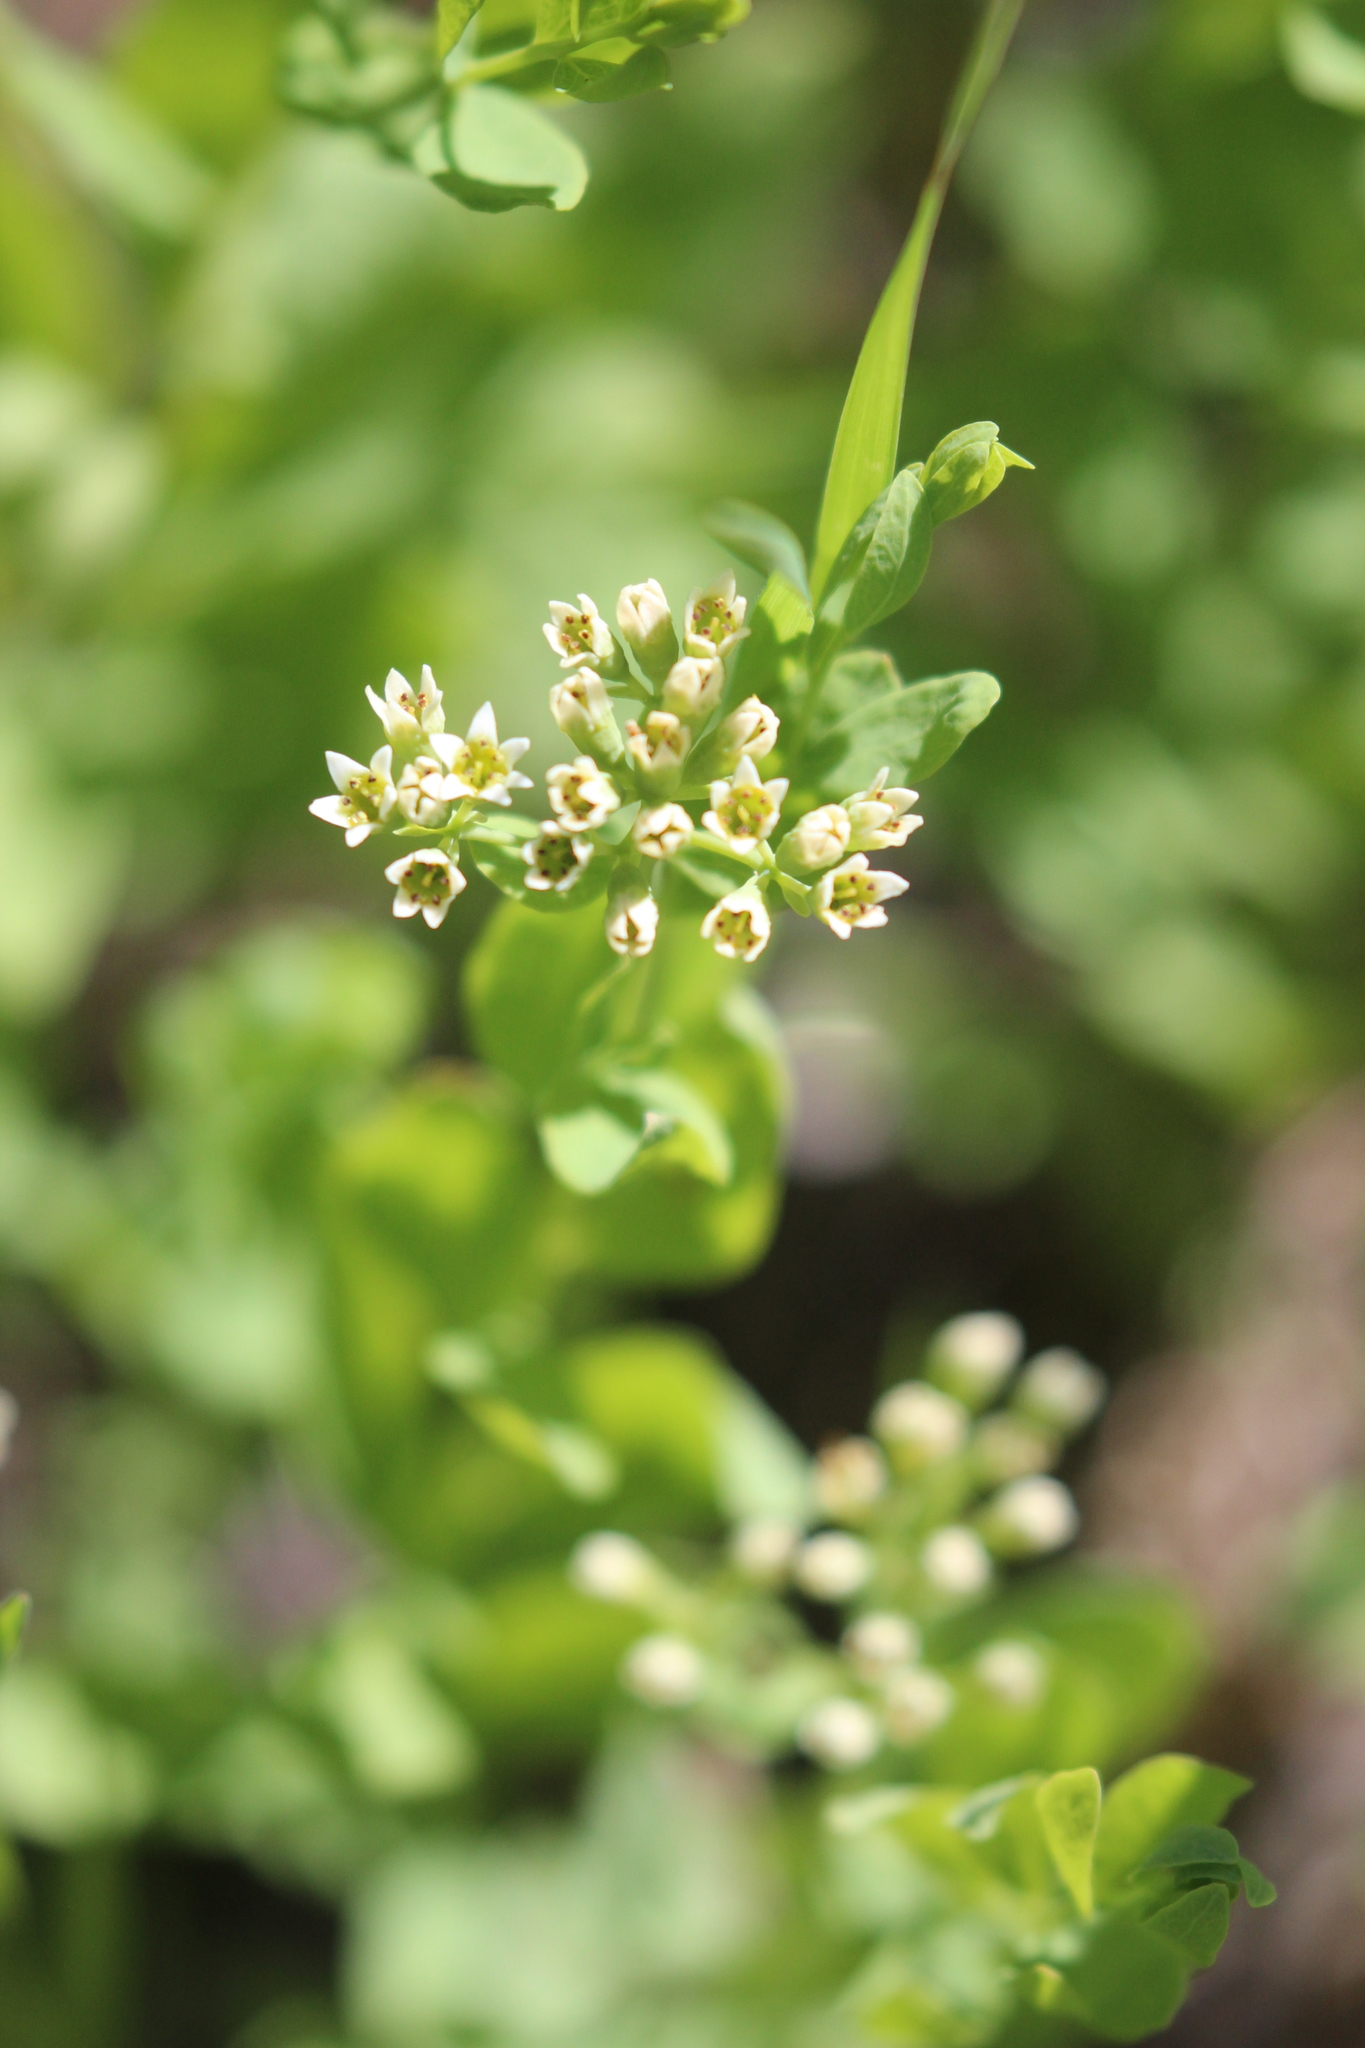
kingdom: Plantae
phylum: Tracheophyta
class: Magnoliopsida
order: Santalales
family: Comandraceae
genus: Comandra
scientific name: Comandra umbellata
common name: Bastard toadflax
